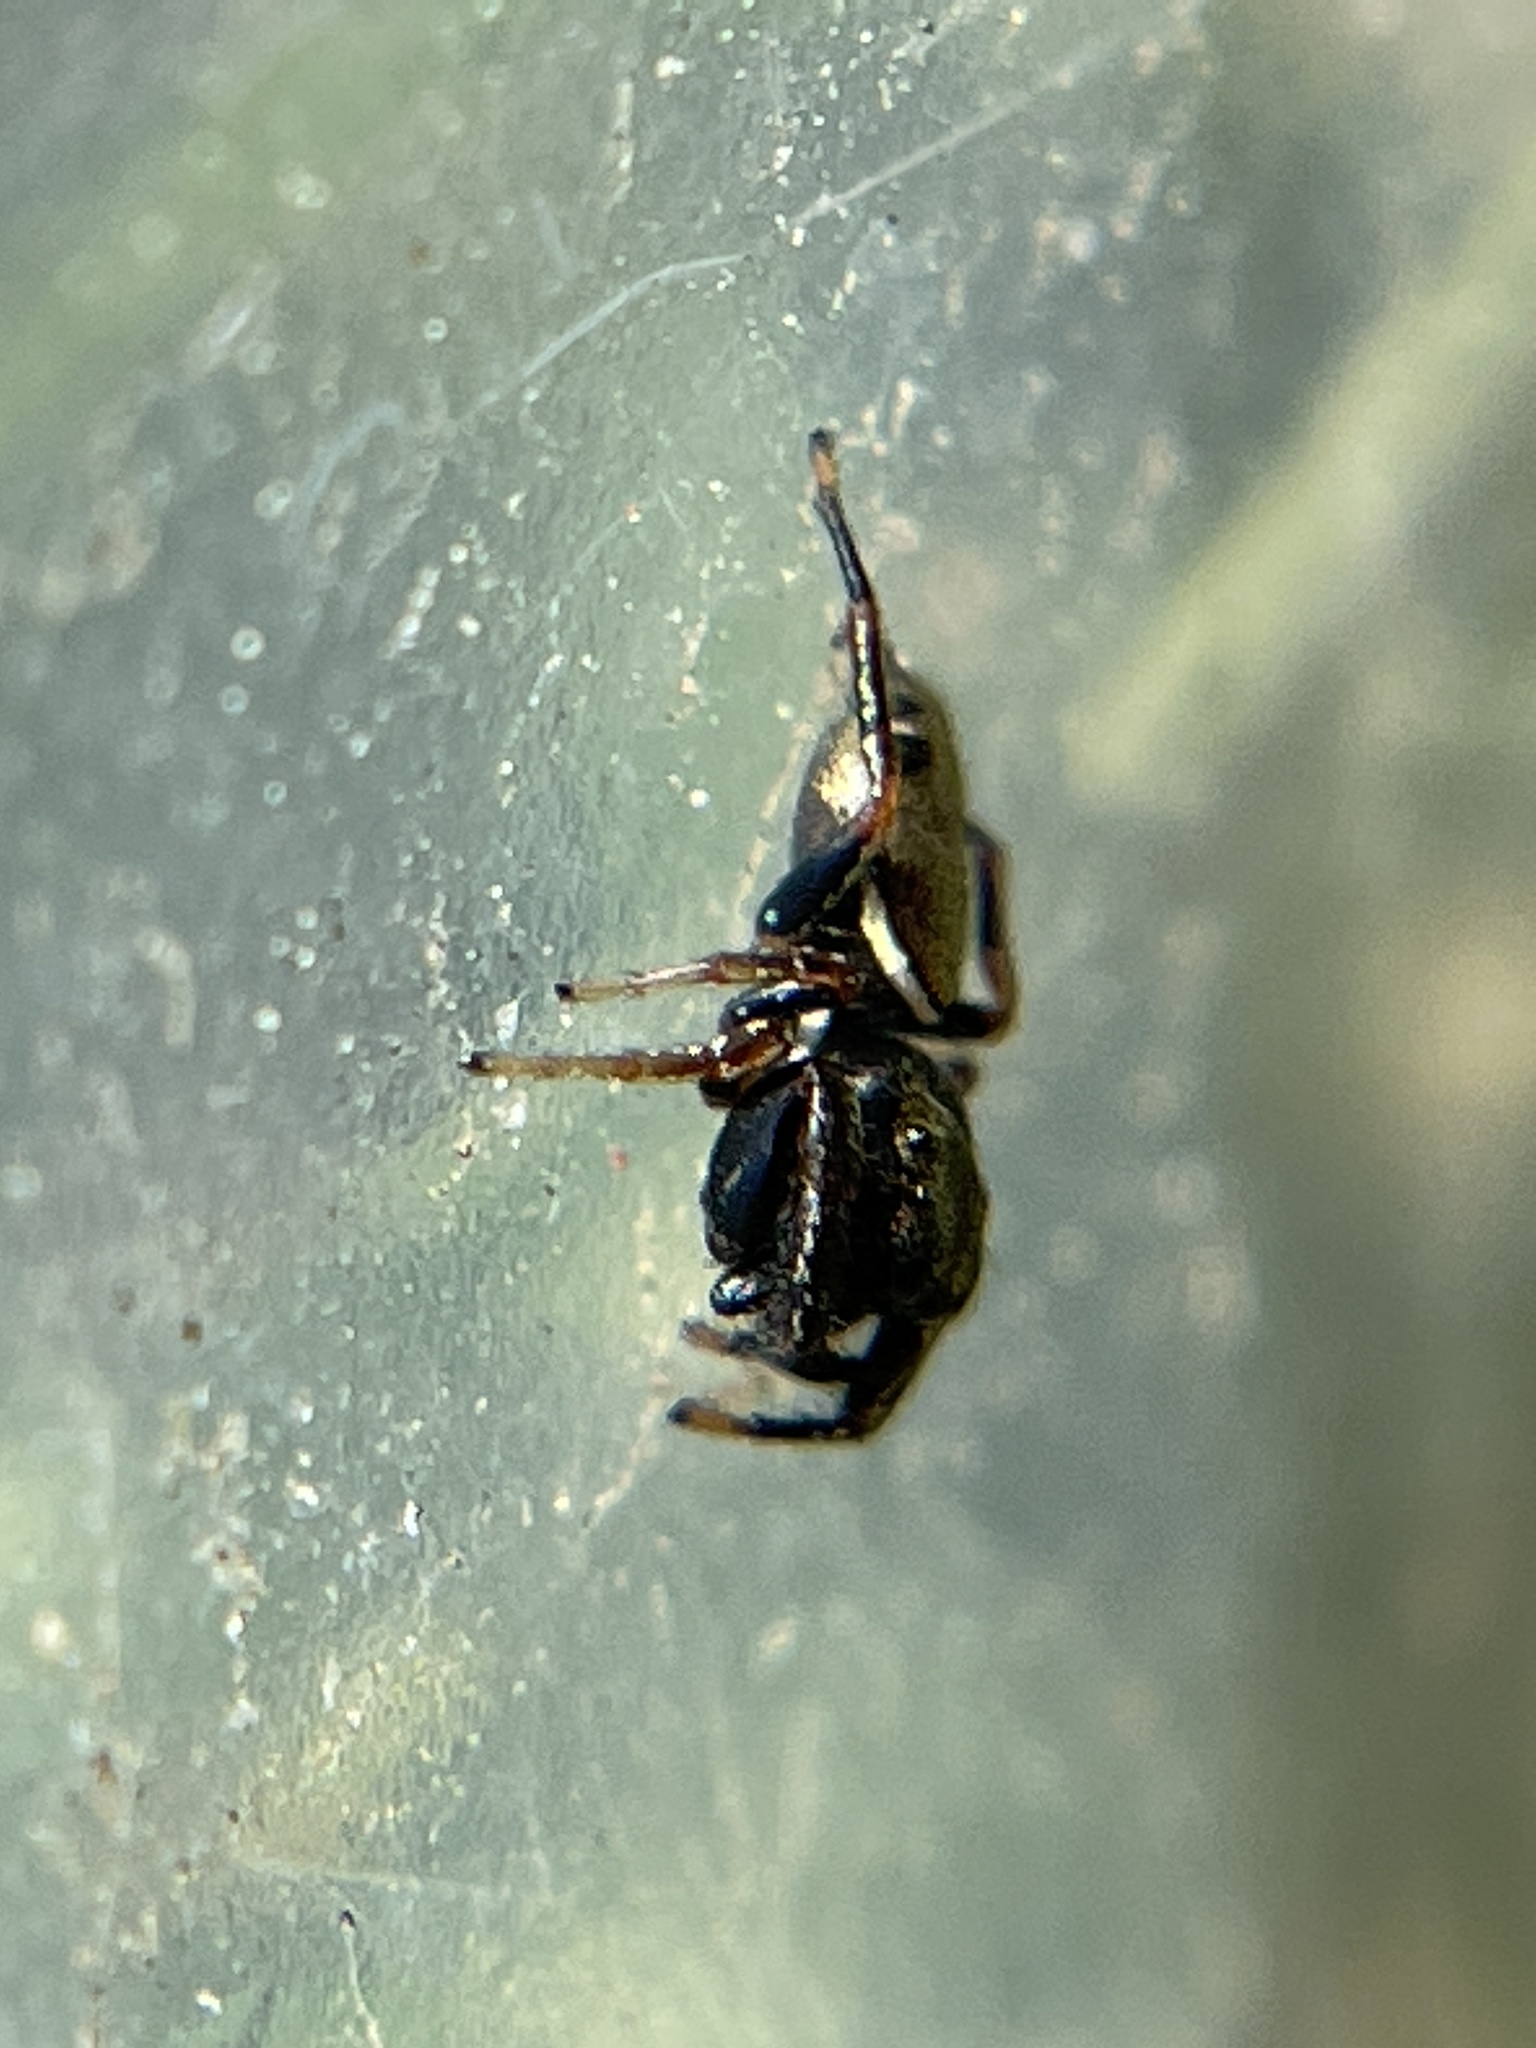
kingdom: Animalia
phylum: Arthropoda
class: Arachnida
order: Araneae
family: Salticidae
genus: Sassacus
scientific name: Sassacus vitis
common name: Jumping spiders
